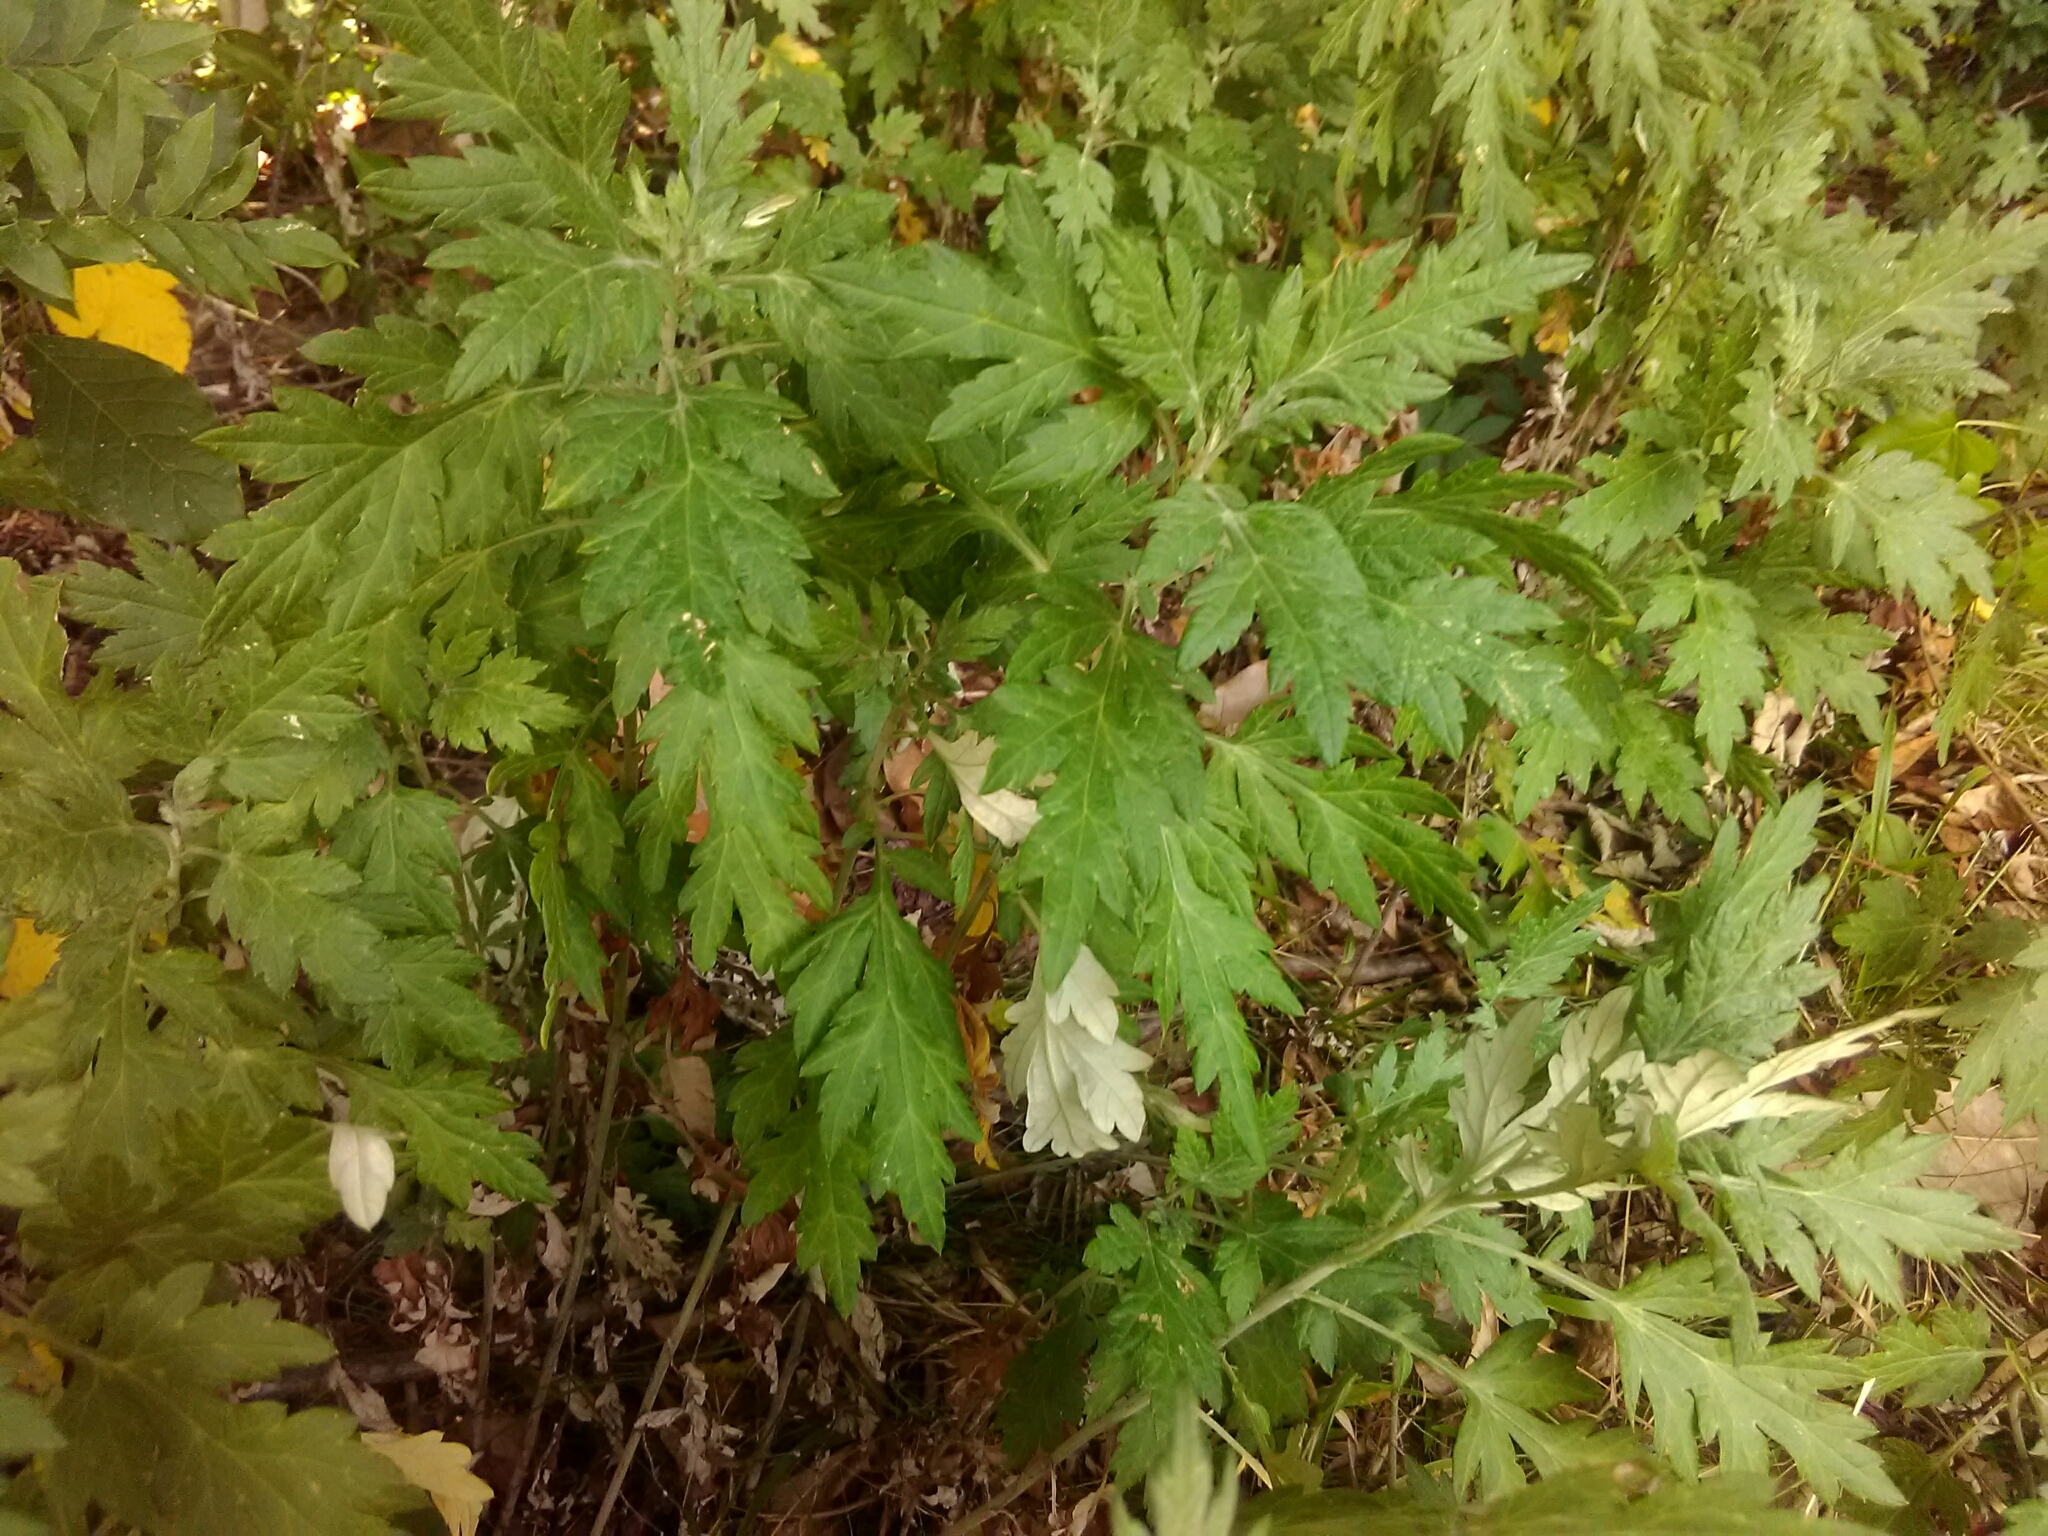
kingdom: Plantae
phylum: Tracheophyta
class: Magnoliopsida
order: Asterales
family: Asteraceae
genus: Artemisia
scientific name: Artemisia vulgaris
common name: Mugwort
